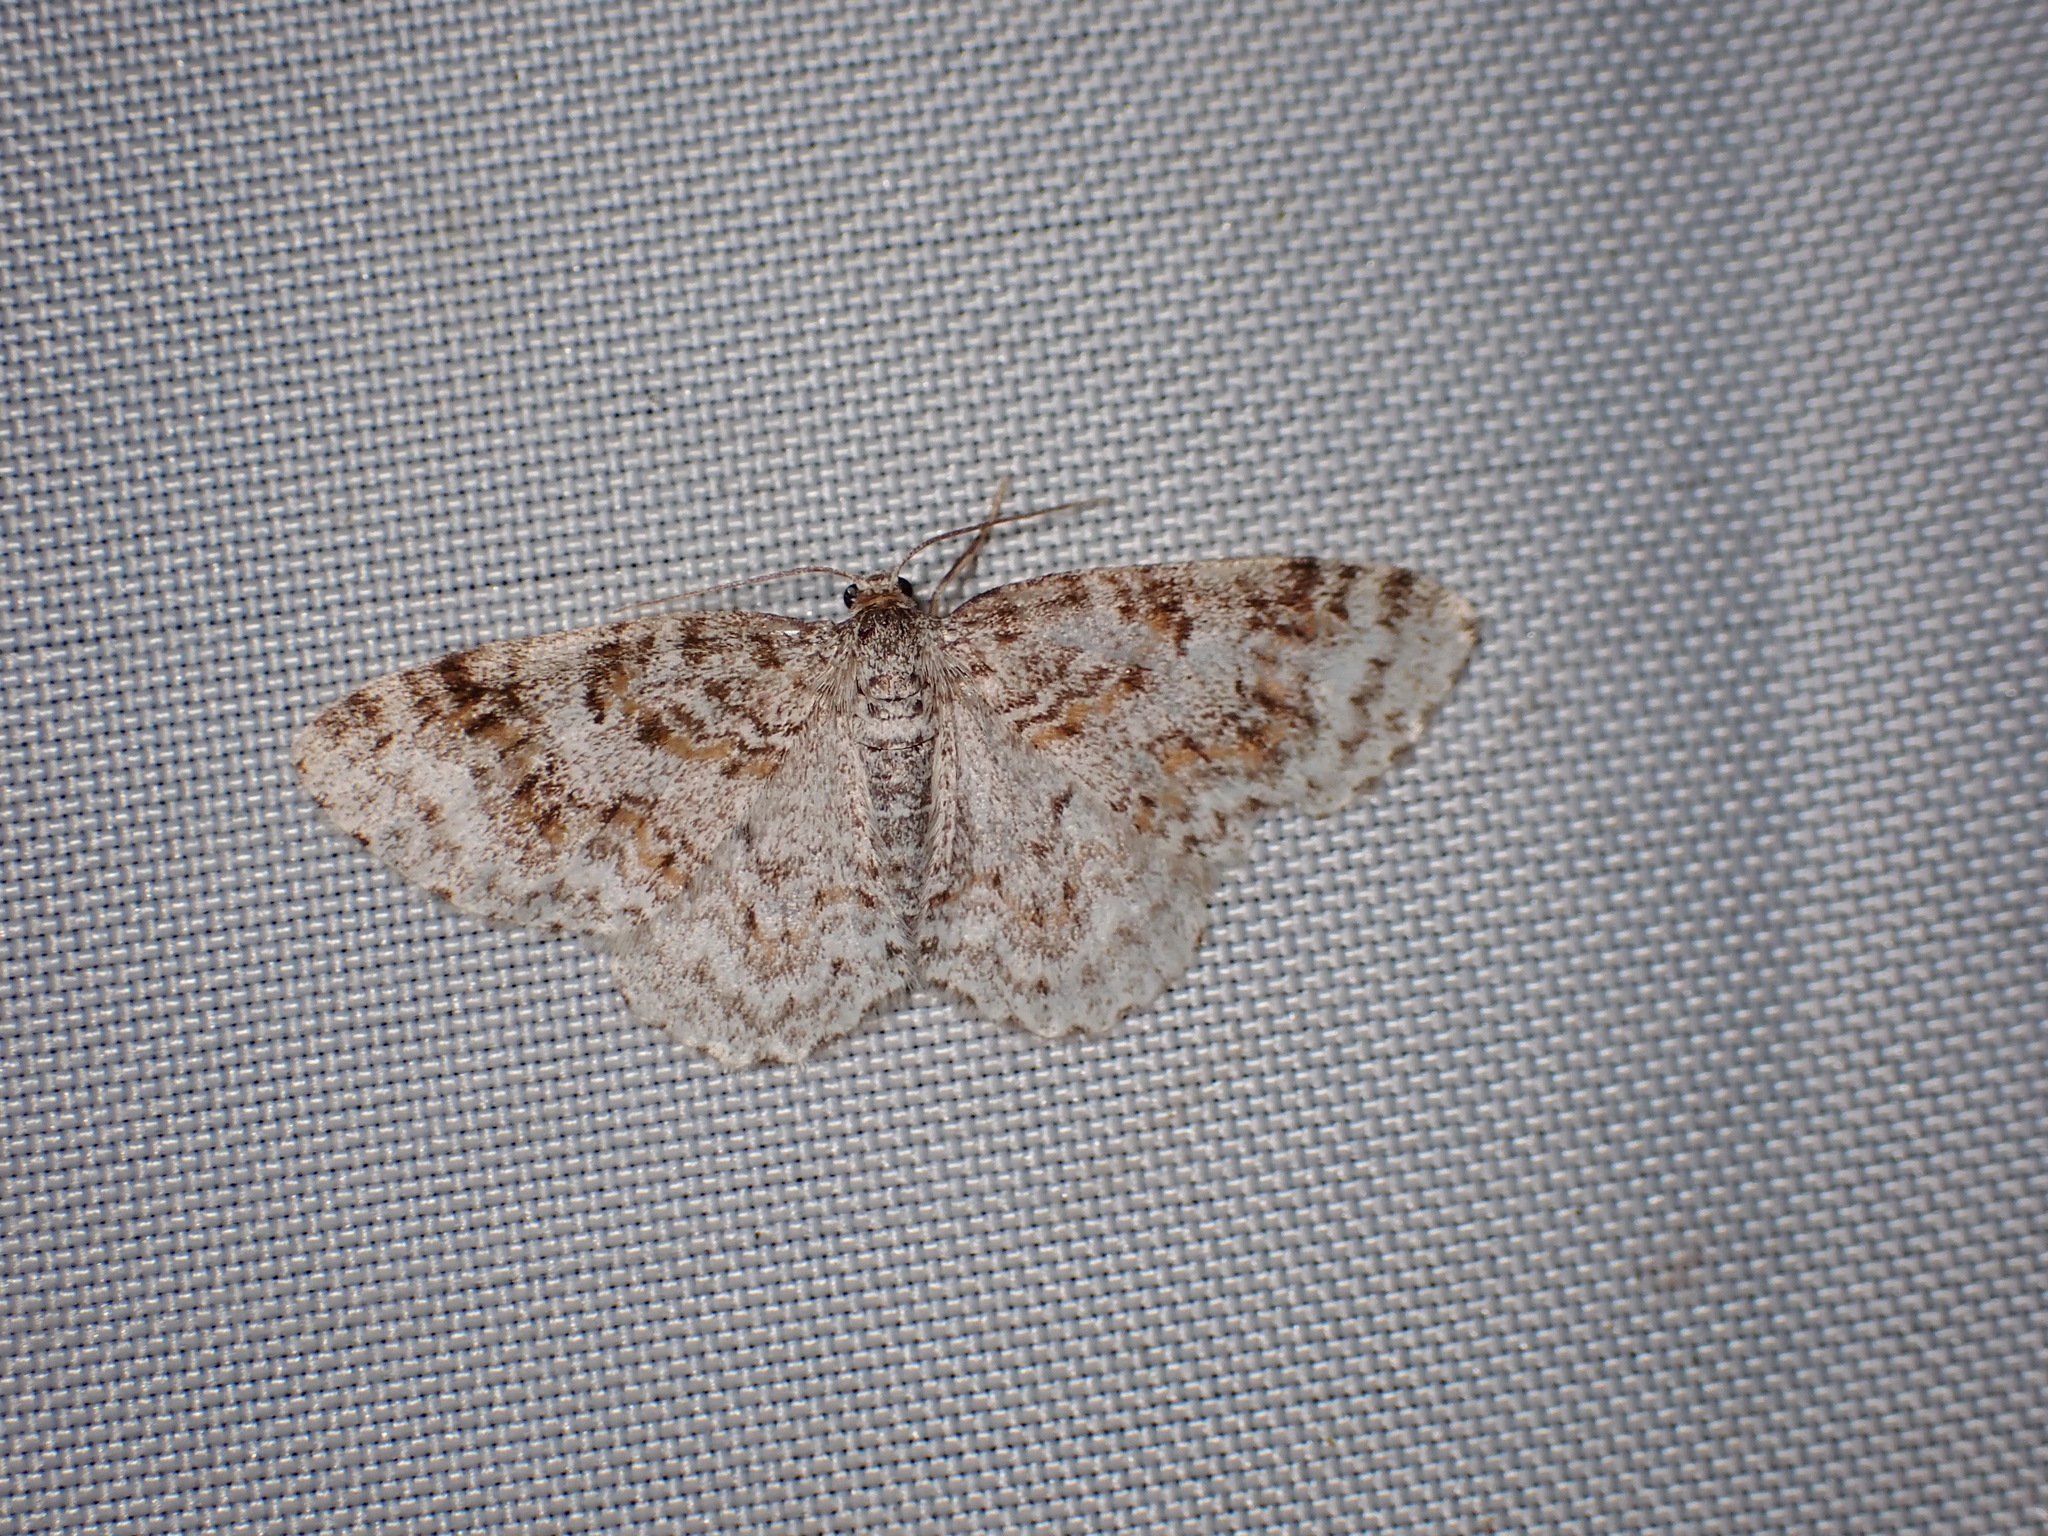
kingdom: Animalia
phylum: Arthropoda
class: Insecta
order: Lepidoptera
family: Geometridae
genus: Hydrelia
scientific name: Hydrelia inornata
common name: Unadorned carpet moth
